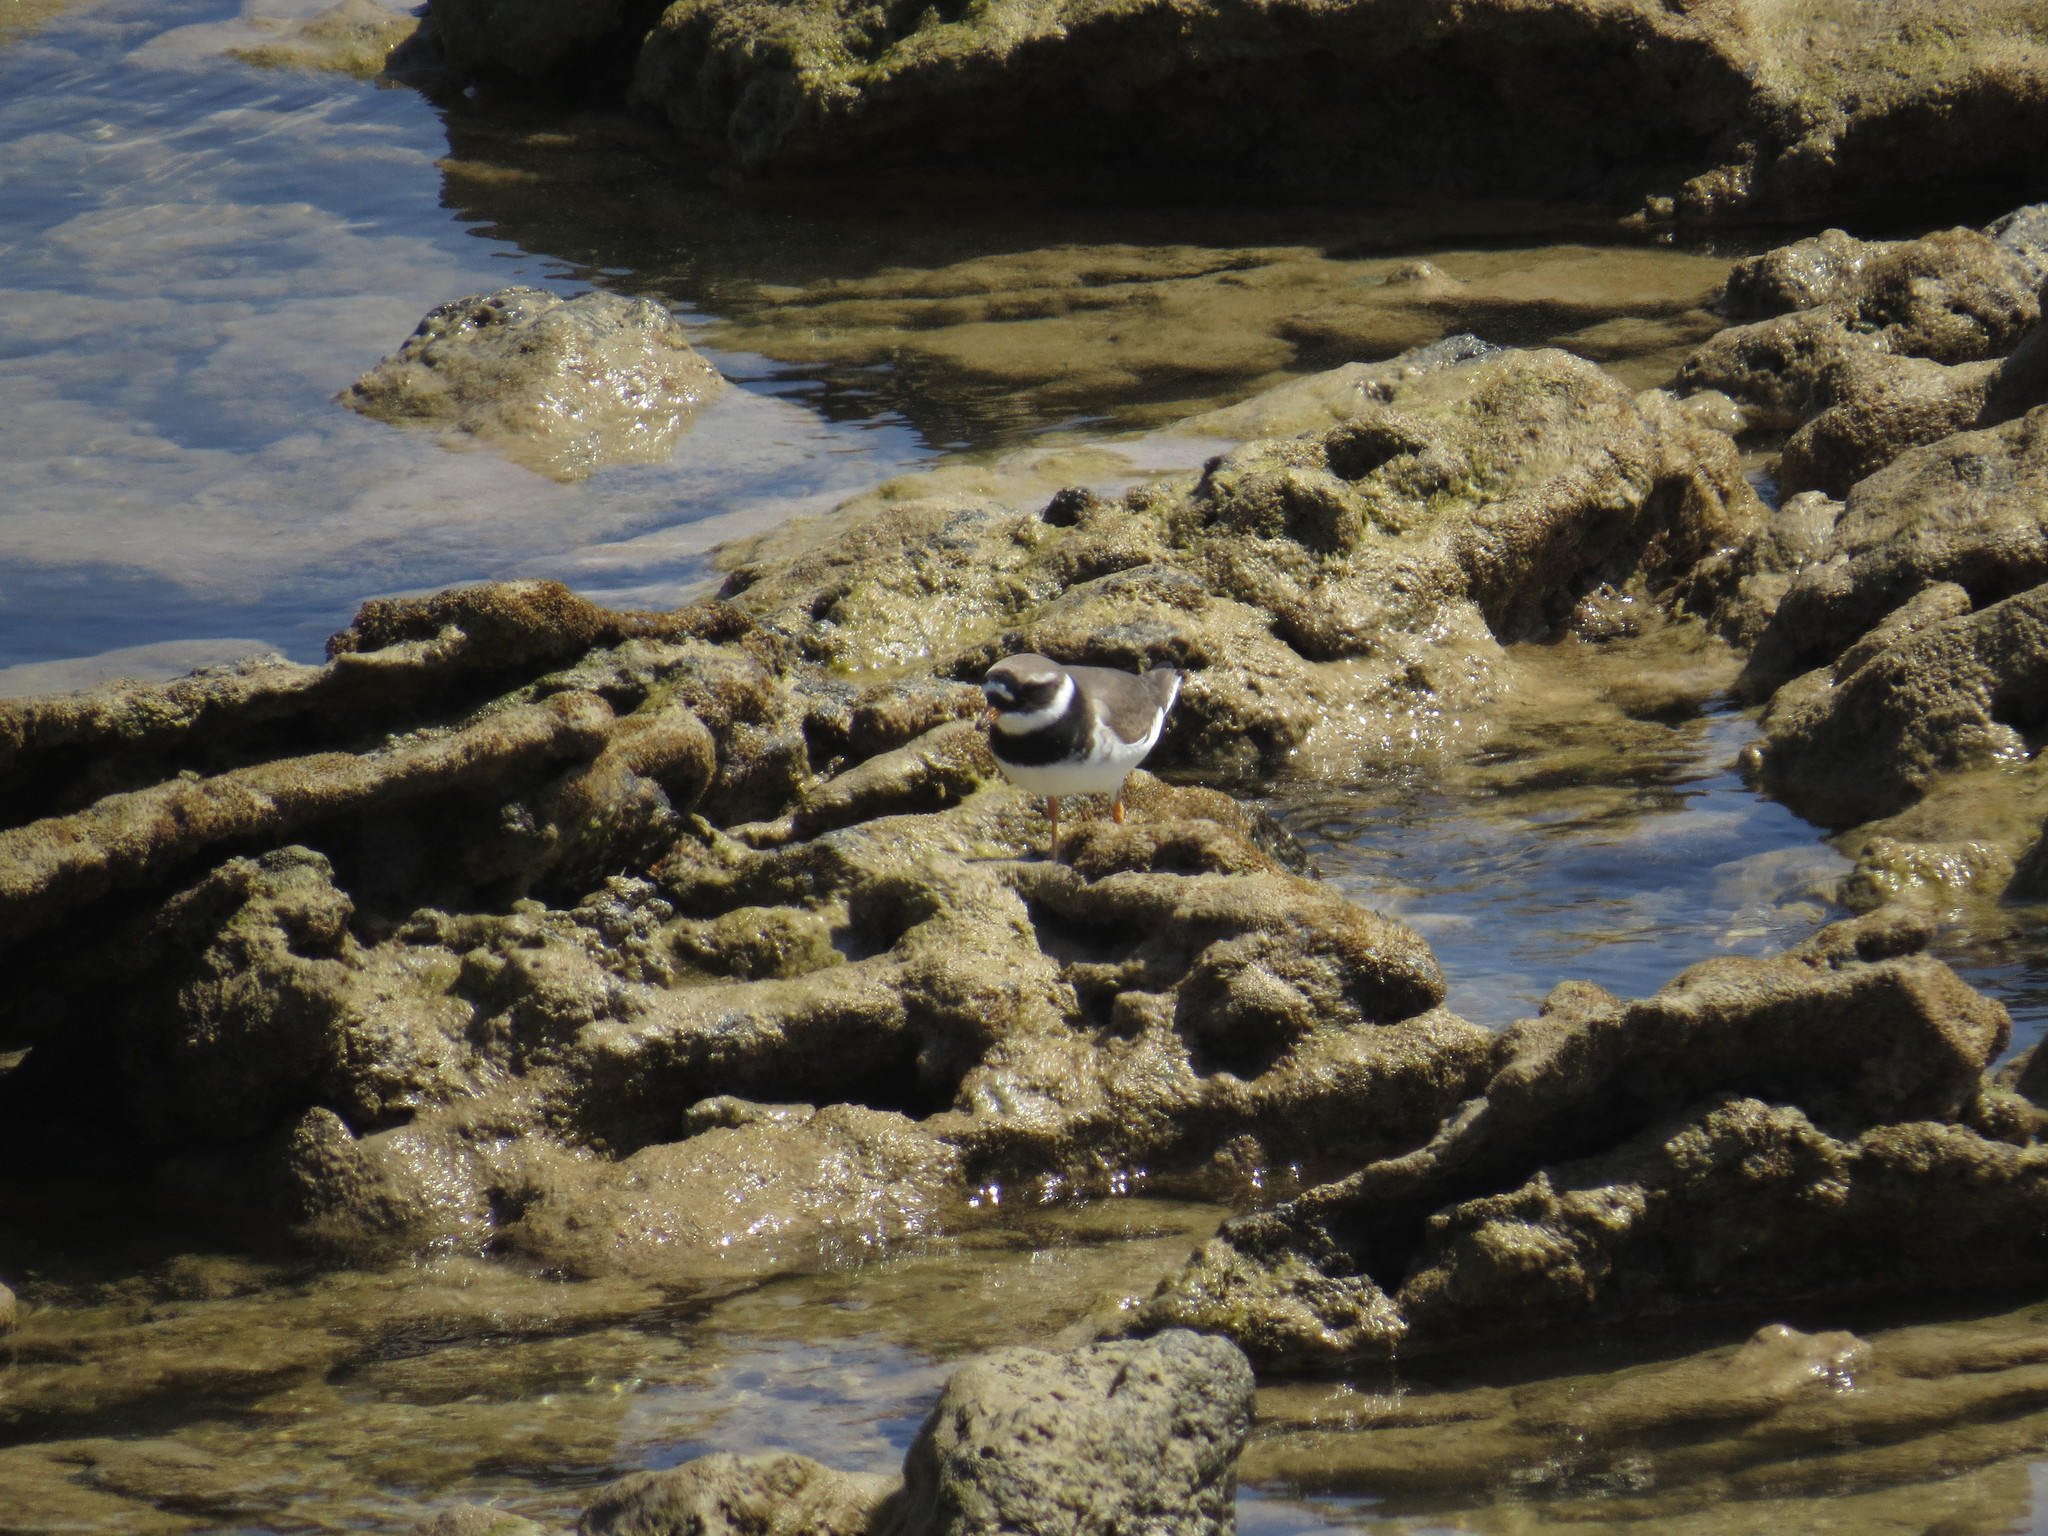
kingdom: Animalia
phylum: Chordata
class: Aves
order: Charadriiformes
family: Charadriidae
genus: Charadrius
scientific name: Charadrius hiaticula
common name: Common ringed plover
